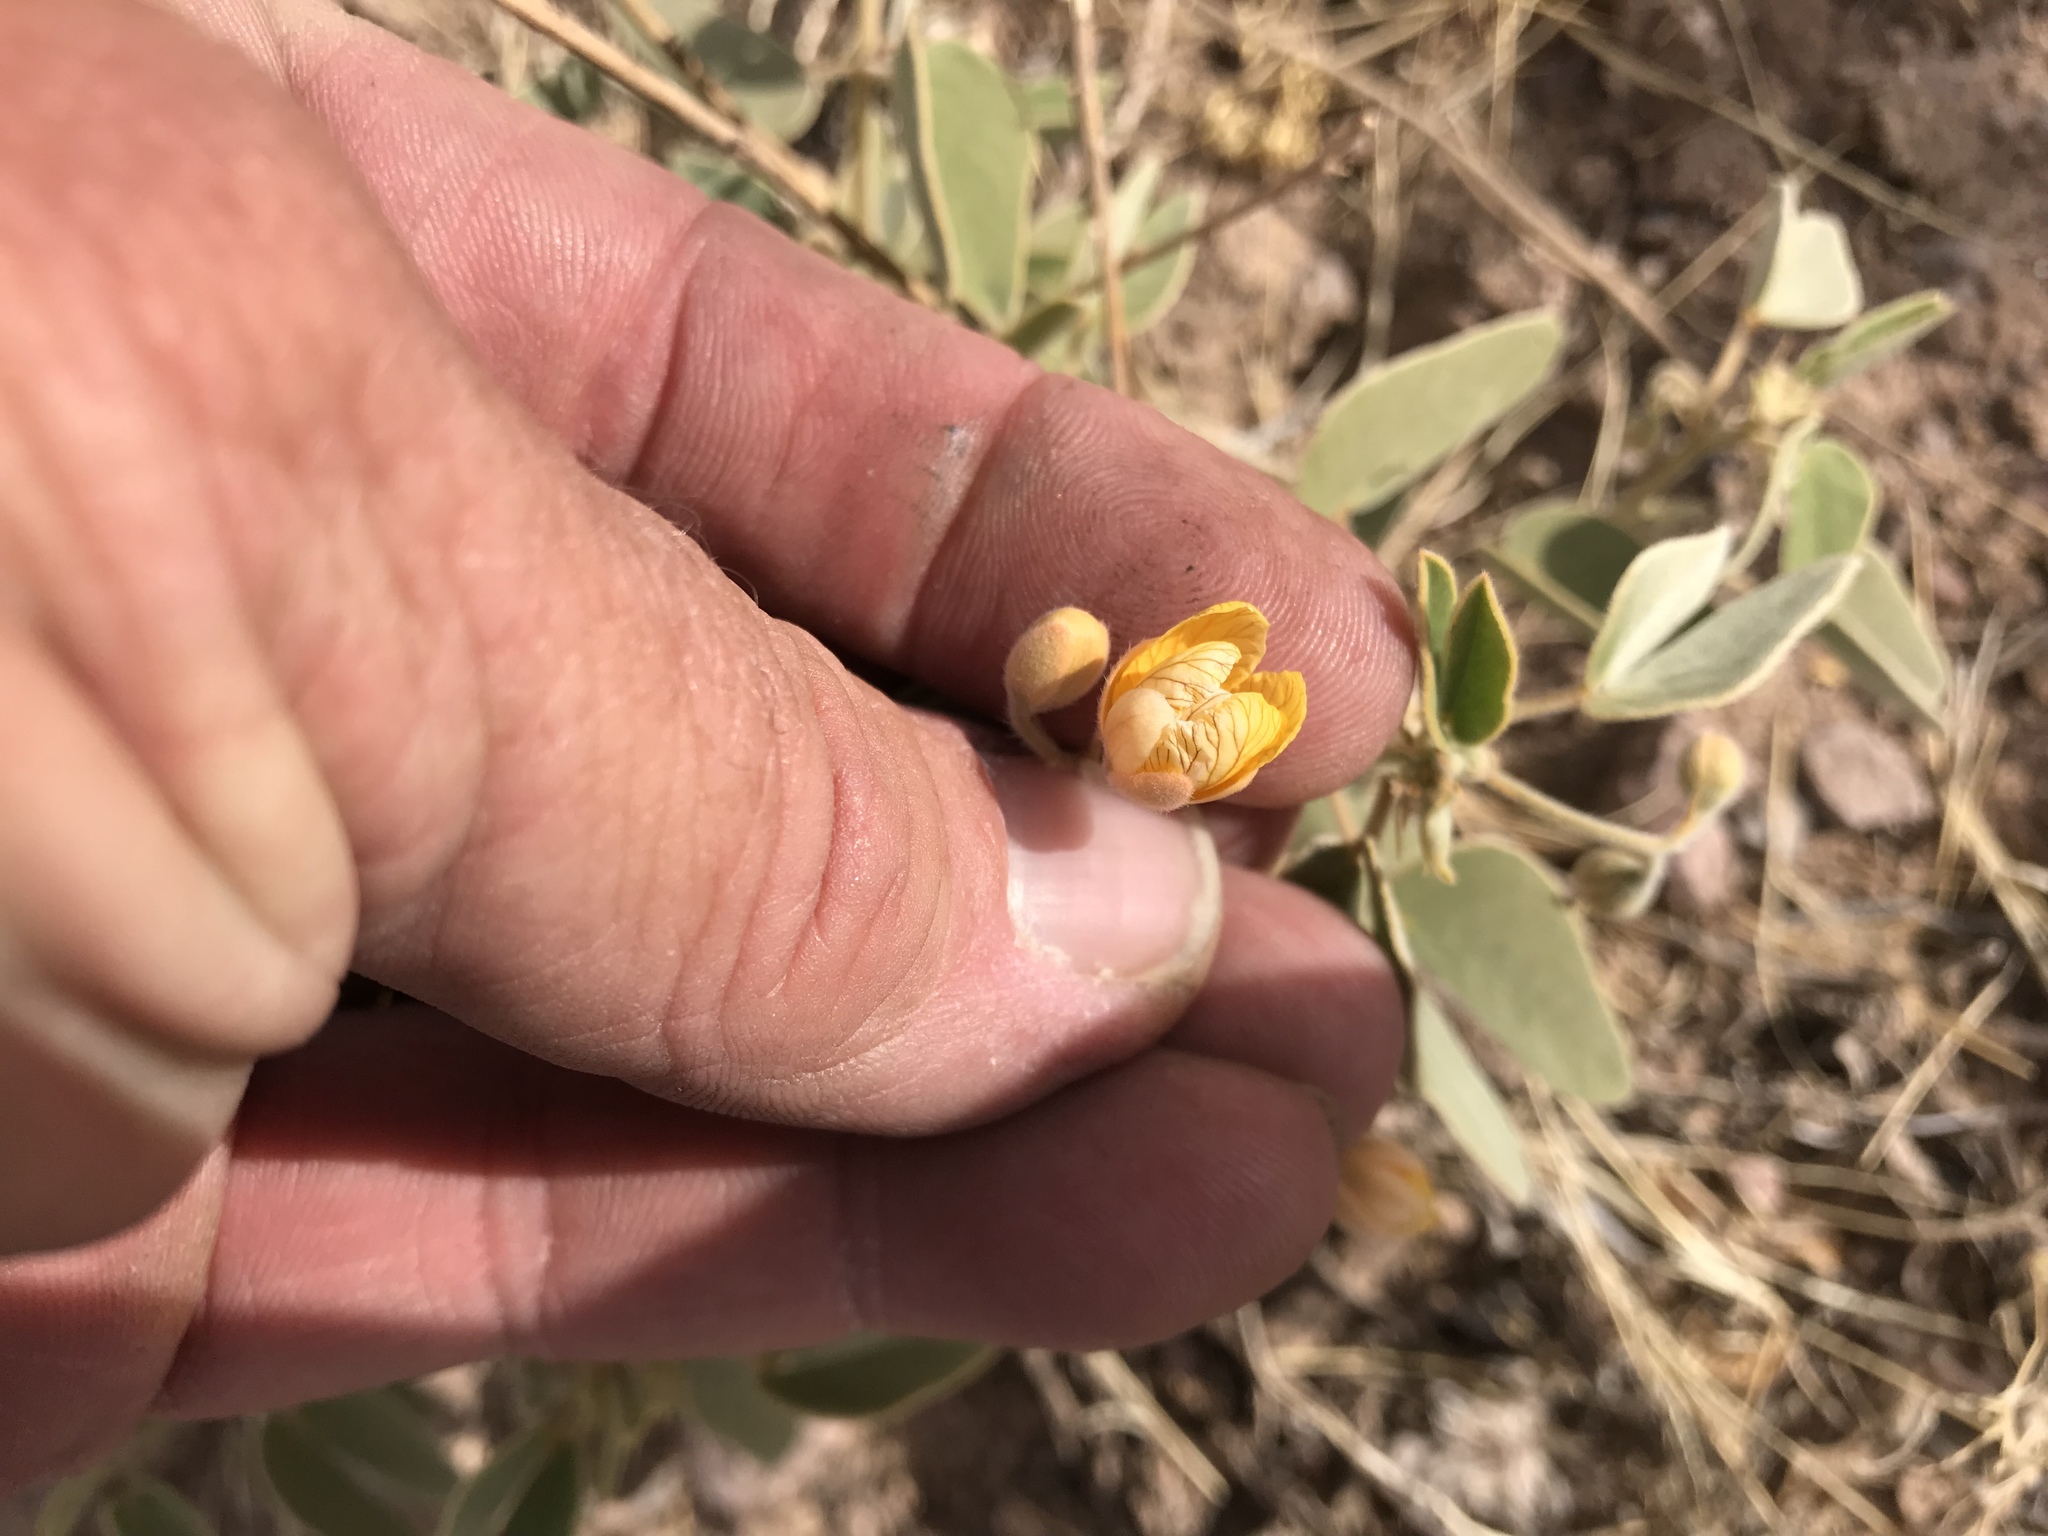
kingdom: Plantae
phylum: Tracheophyta
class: Magnoliopsida
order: Fabales
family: Fabaceae
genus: Senna
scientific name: Senna bauhinioides
